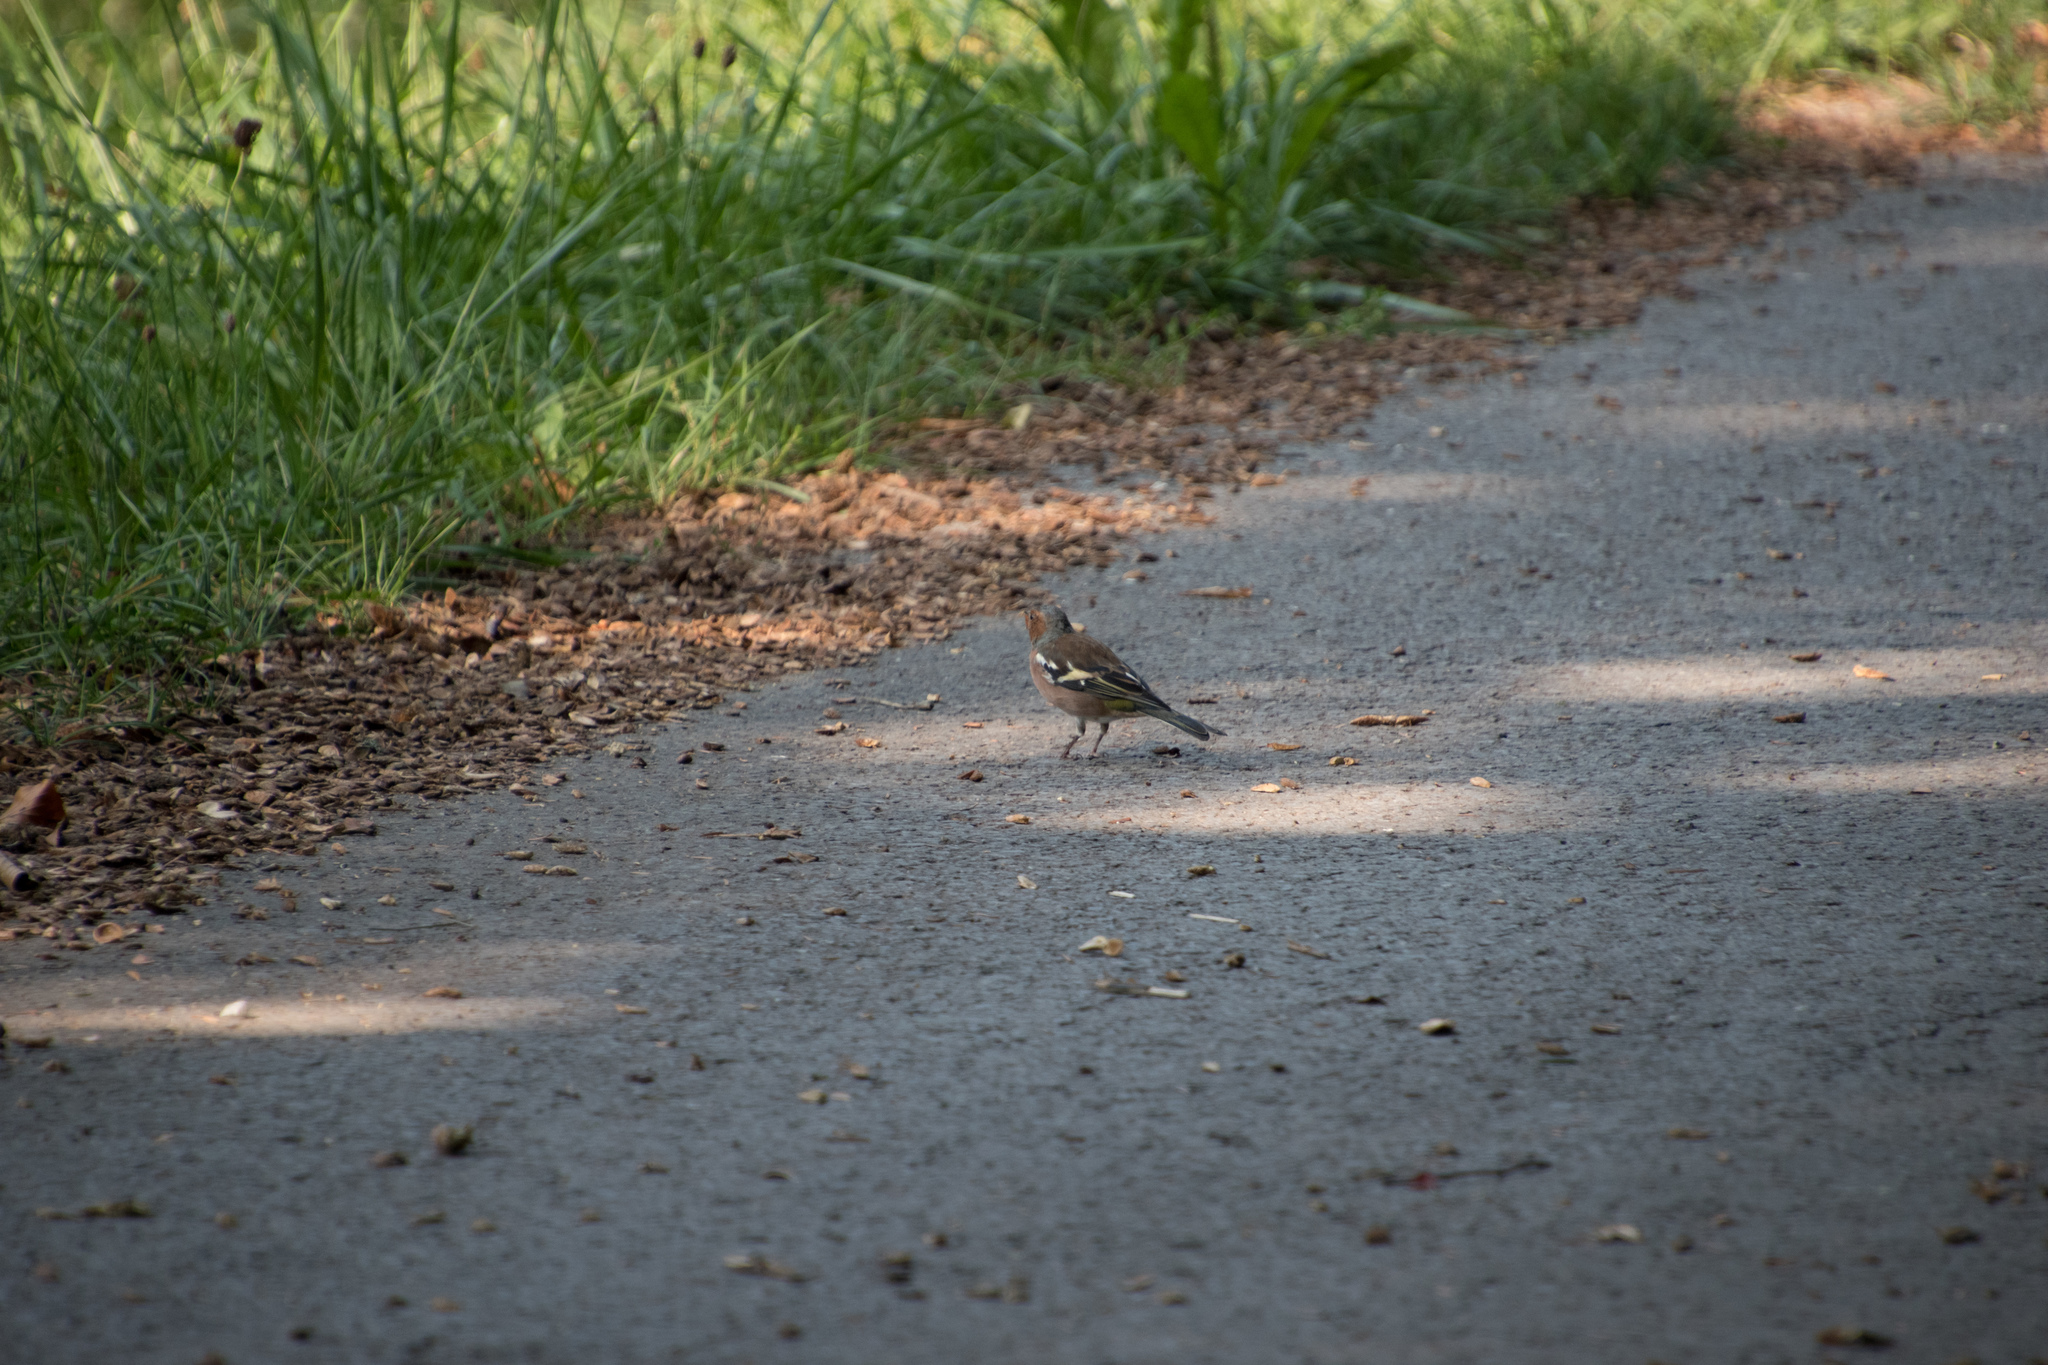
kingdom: Animalia
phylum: Chordata
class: Aves
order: Passeriformes
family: Fringillidae
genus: Fringilla
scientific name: Fringilla coelebs
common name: Common chaffinch
